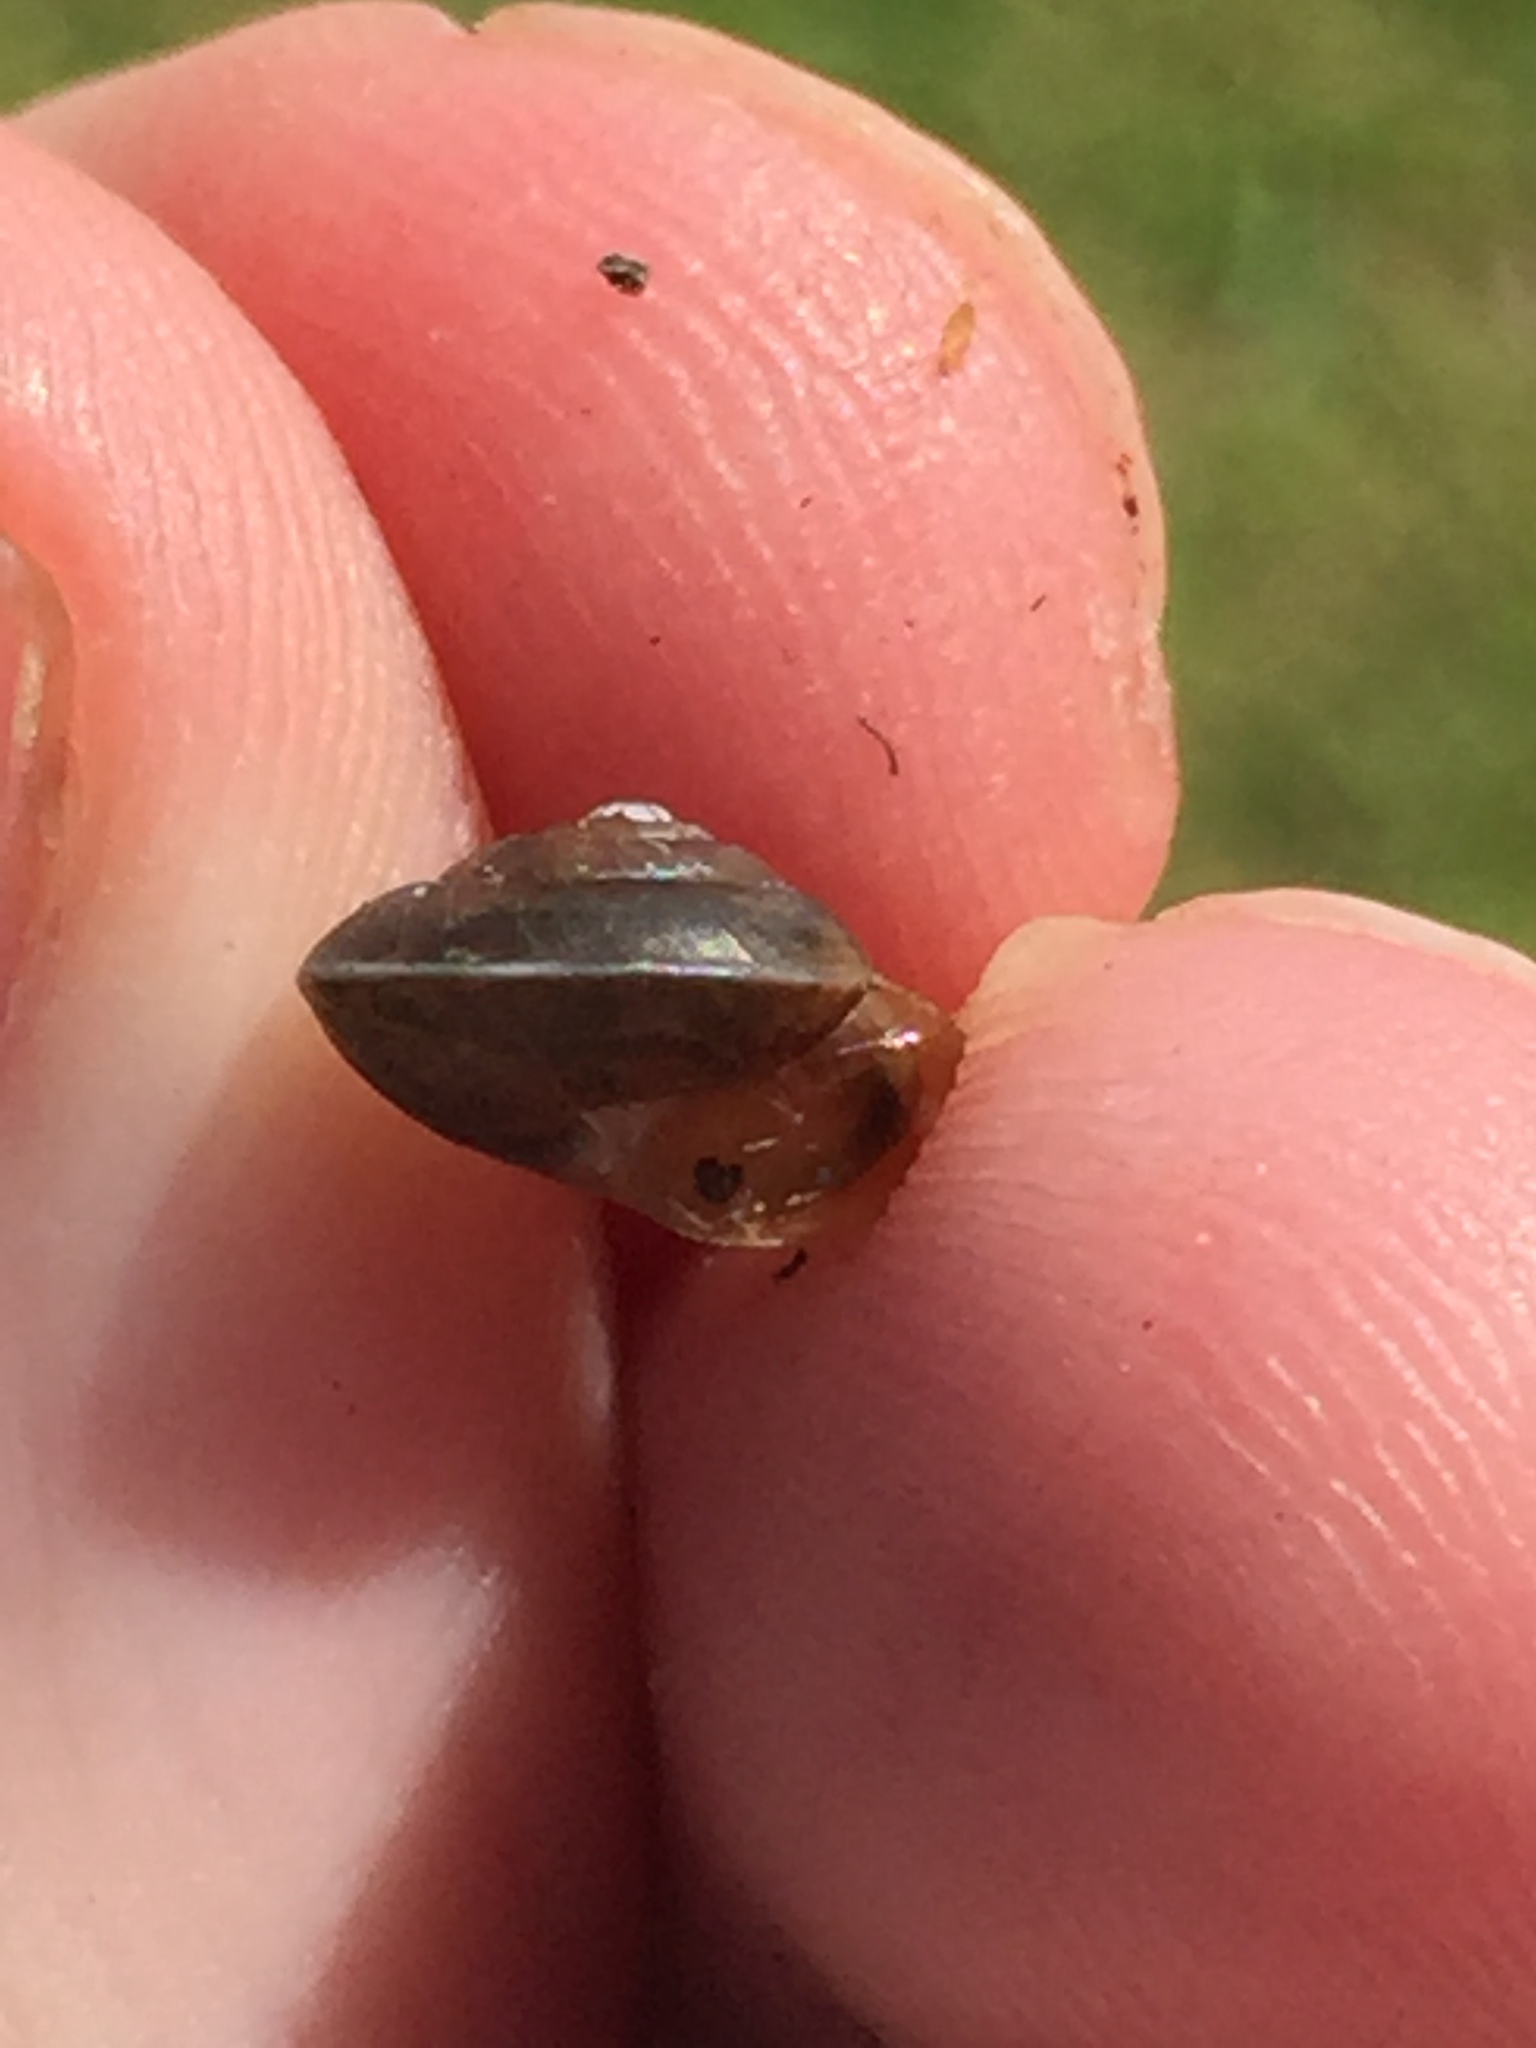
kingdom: Animalia
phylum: Mollusca
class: Gastropoda
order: Stylommatophora
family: Hygromiidae
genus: Hygromia
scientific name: Hygromia cinctella
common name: Girdled snail
